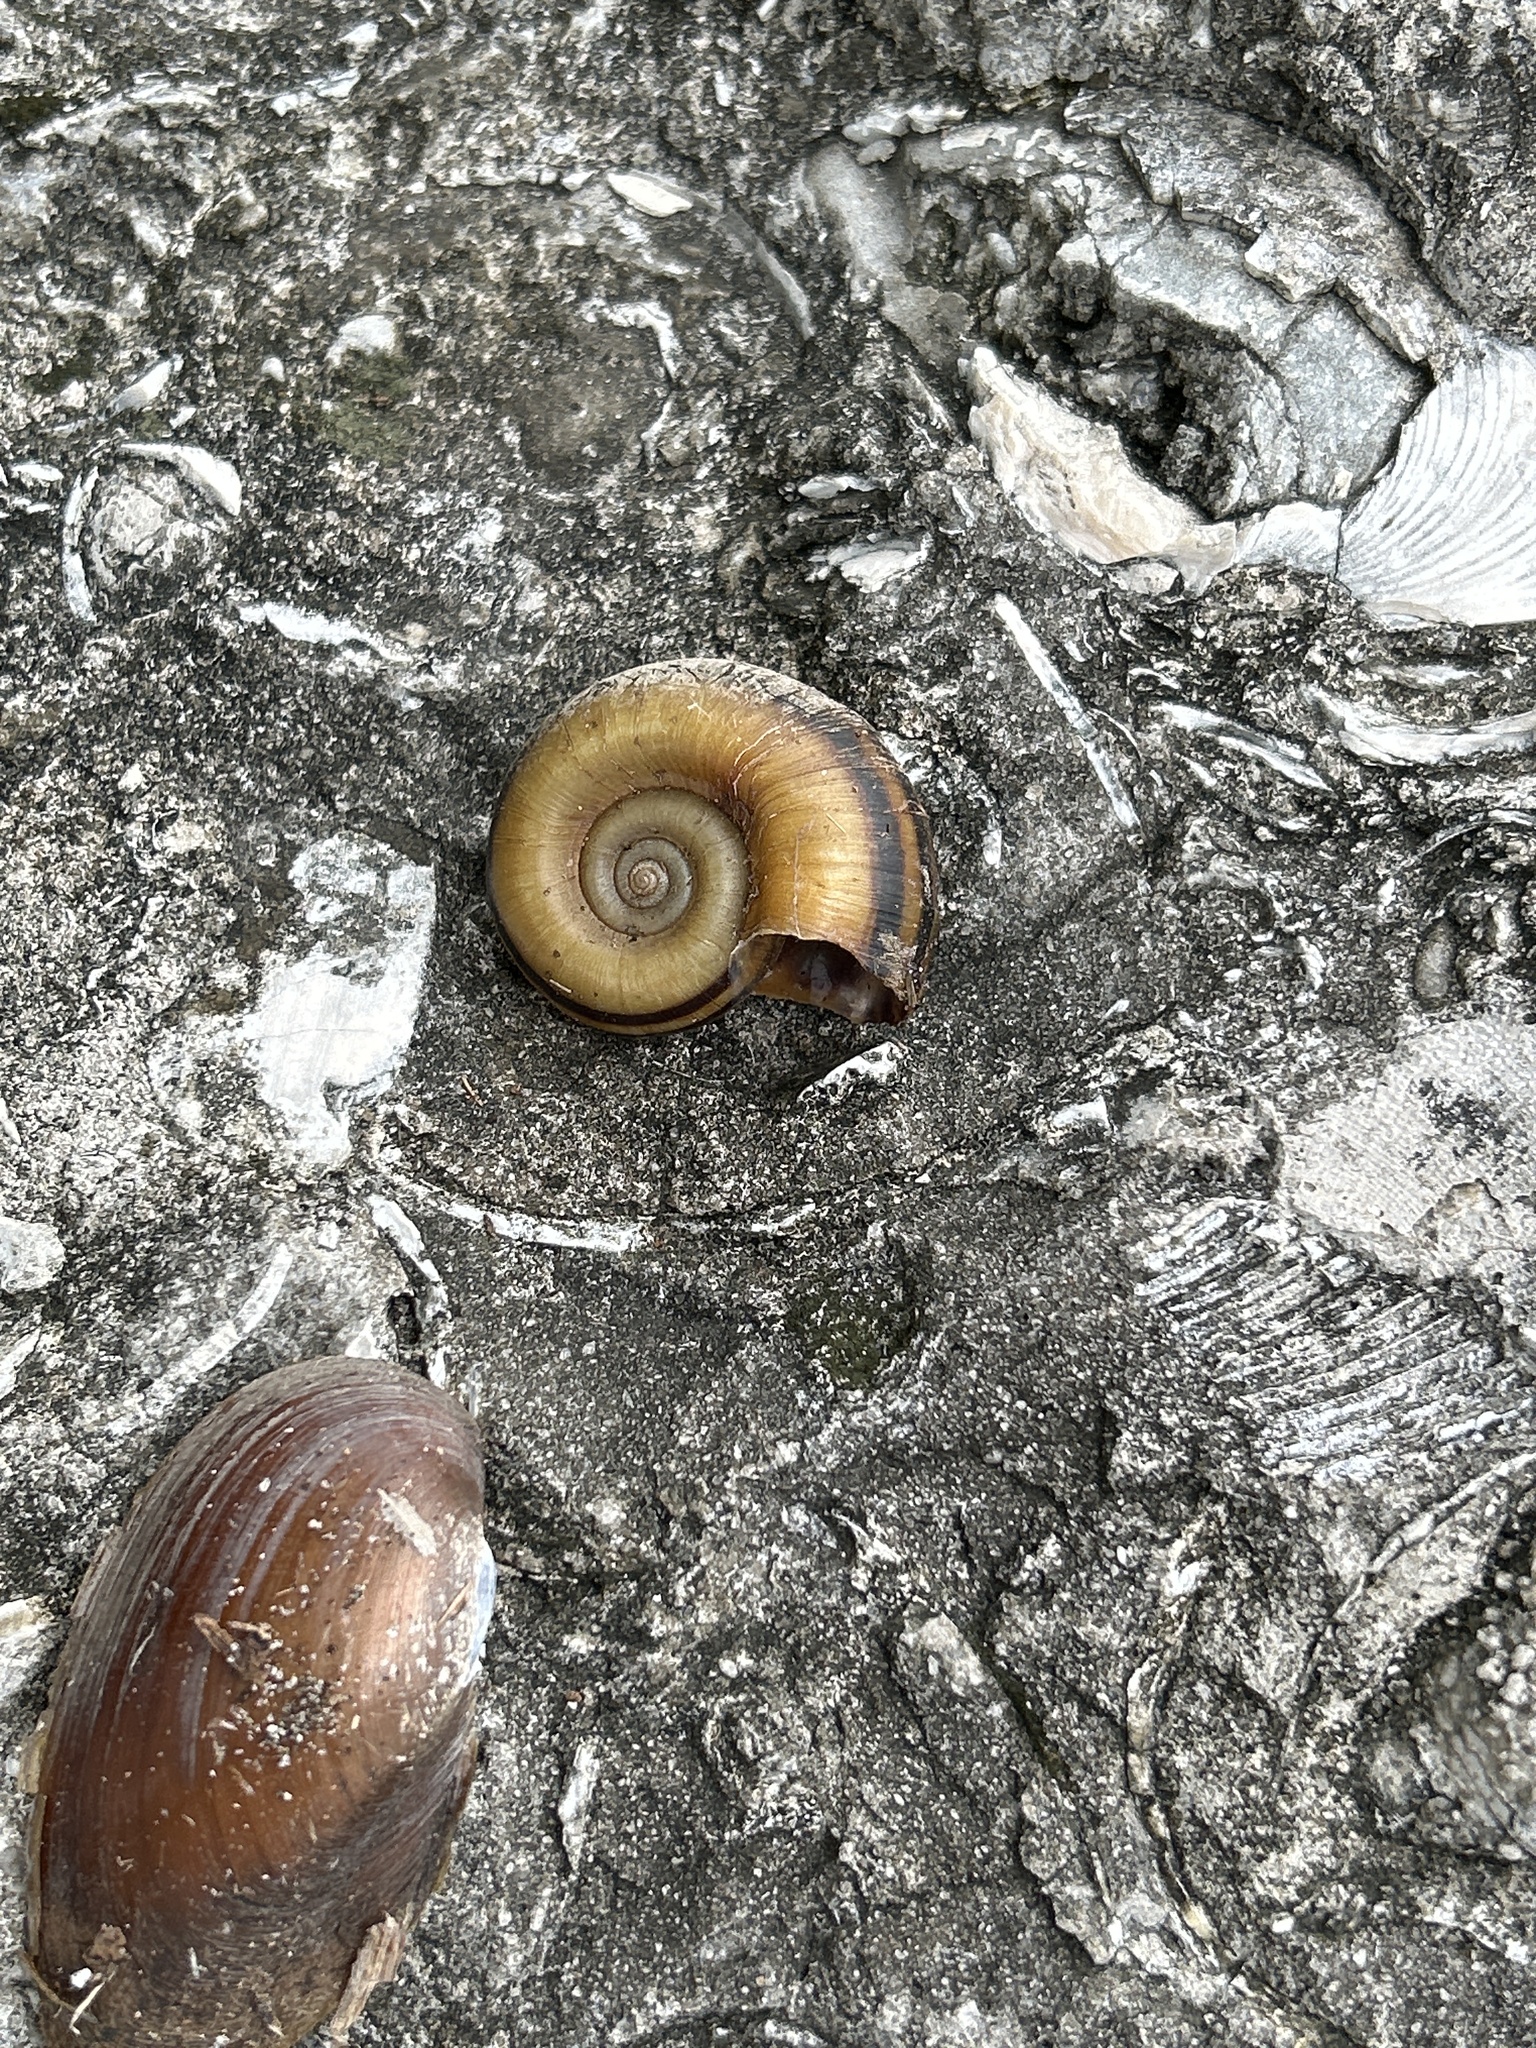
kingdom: Animalia
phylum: Mollusca
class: Gastropoda
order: Architaenioglossa
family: Ampullariidae
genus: Marisa
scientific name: Marisa cornuarietis
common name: Giant ramshorn snail
